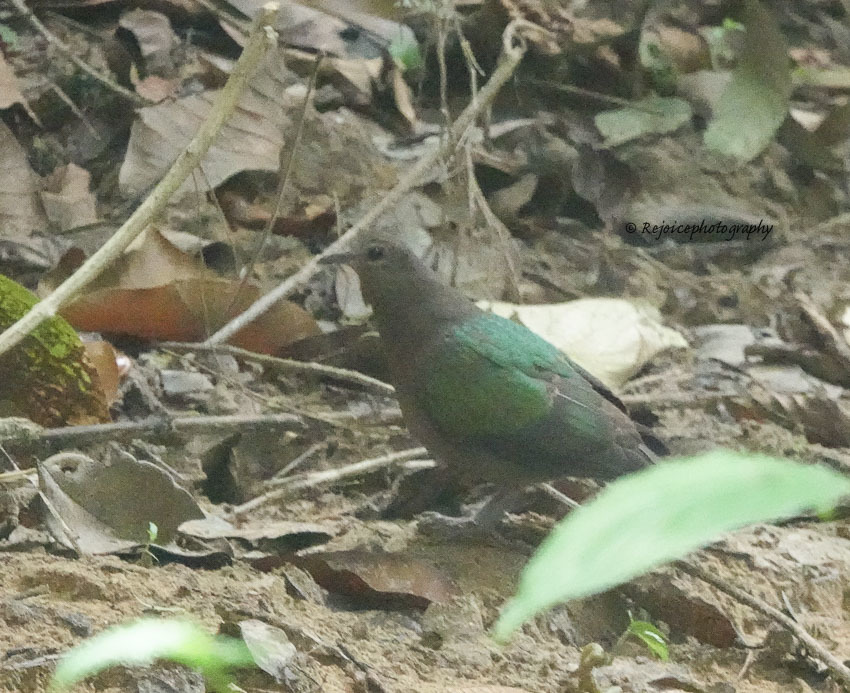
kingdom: Animalia
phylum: Chordata
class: Aves
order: Columbiformes
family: Columbidae
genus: Chalcophaps
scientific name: Chalcophaps indica
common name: Common emerald dove
